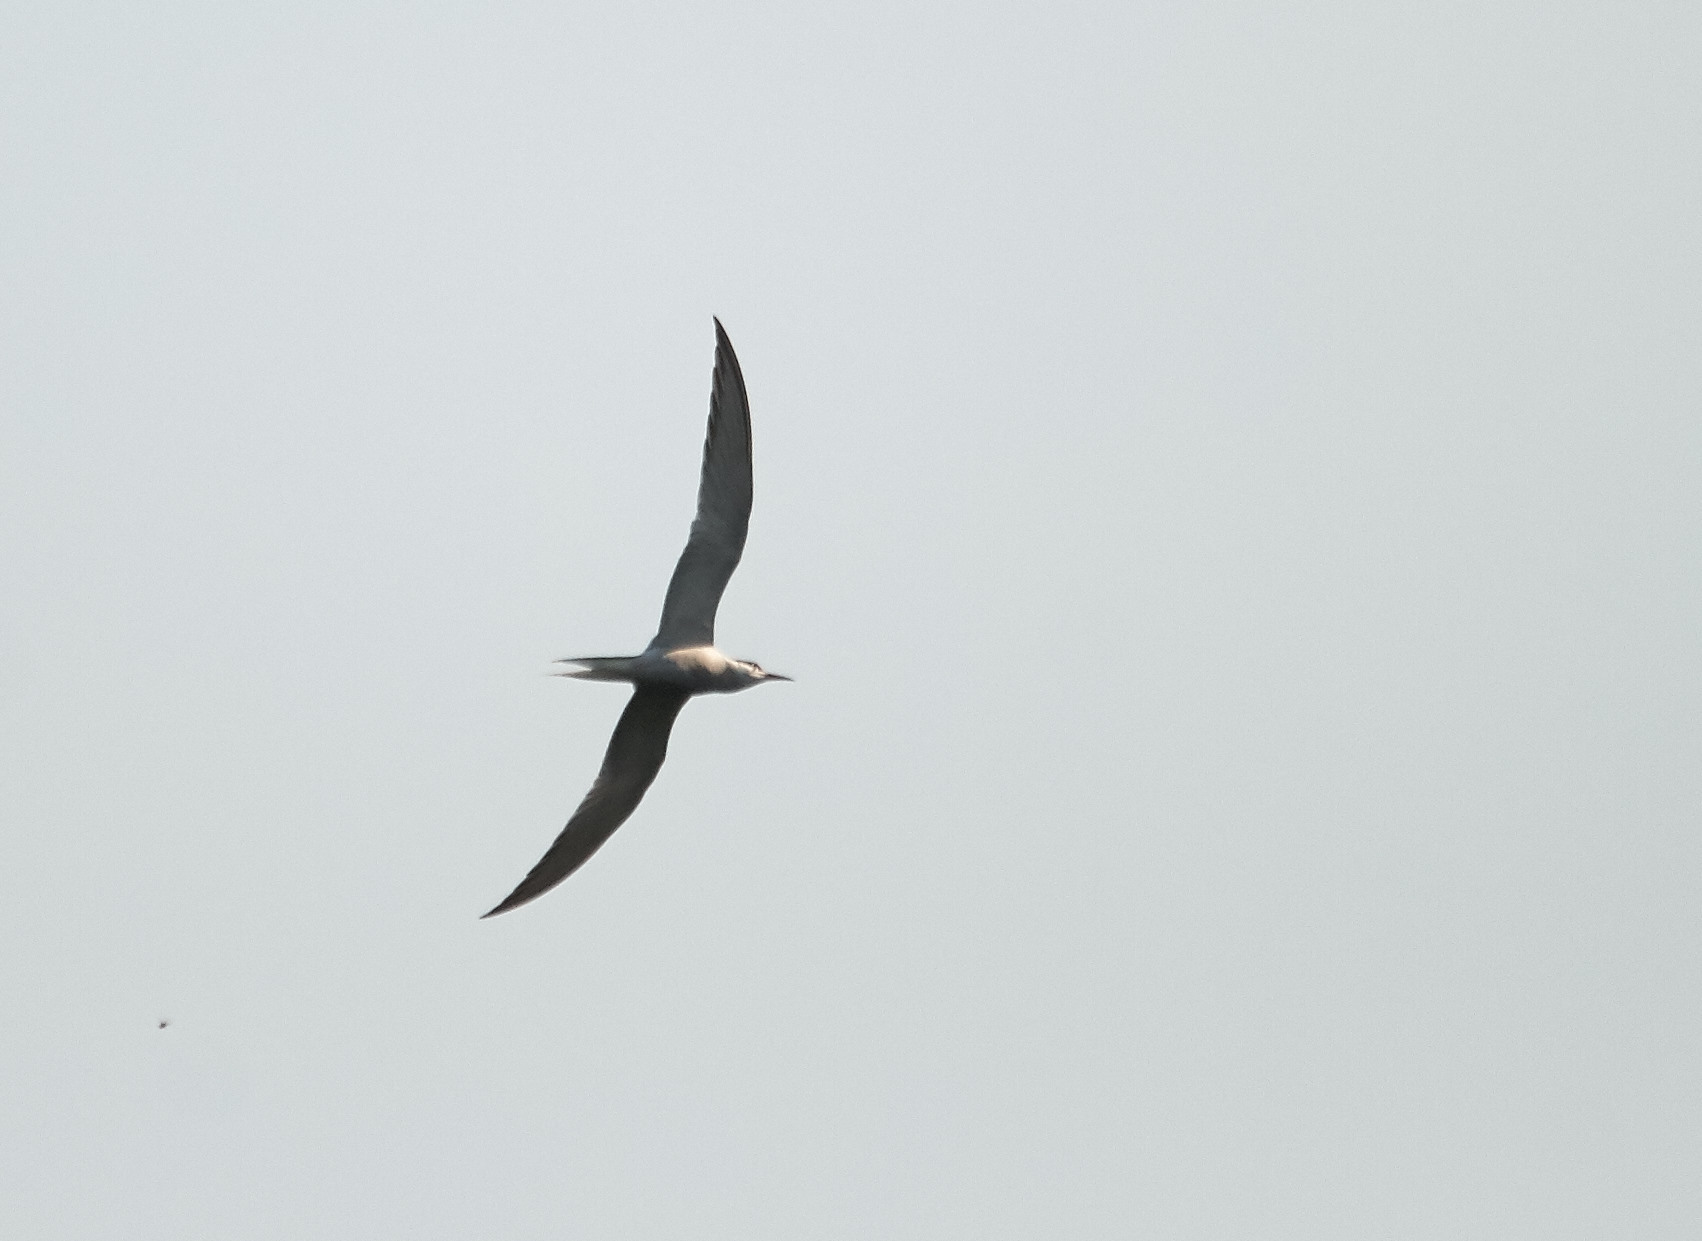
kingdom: Animalia
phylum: Chordata
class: Aves
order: Charadriiformes
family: Laridae
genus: Sterna
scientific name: Sterna hirundo
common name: Common tern
